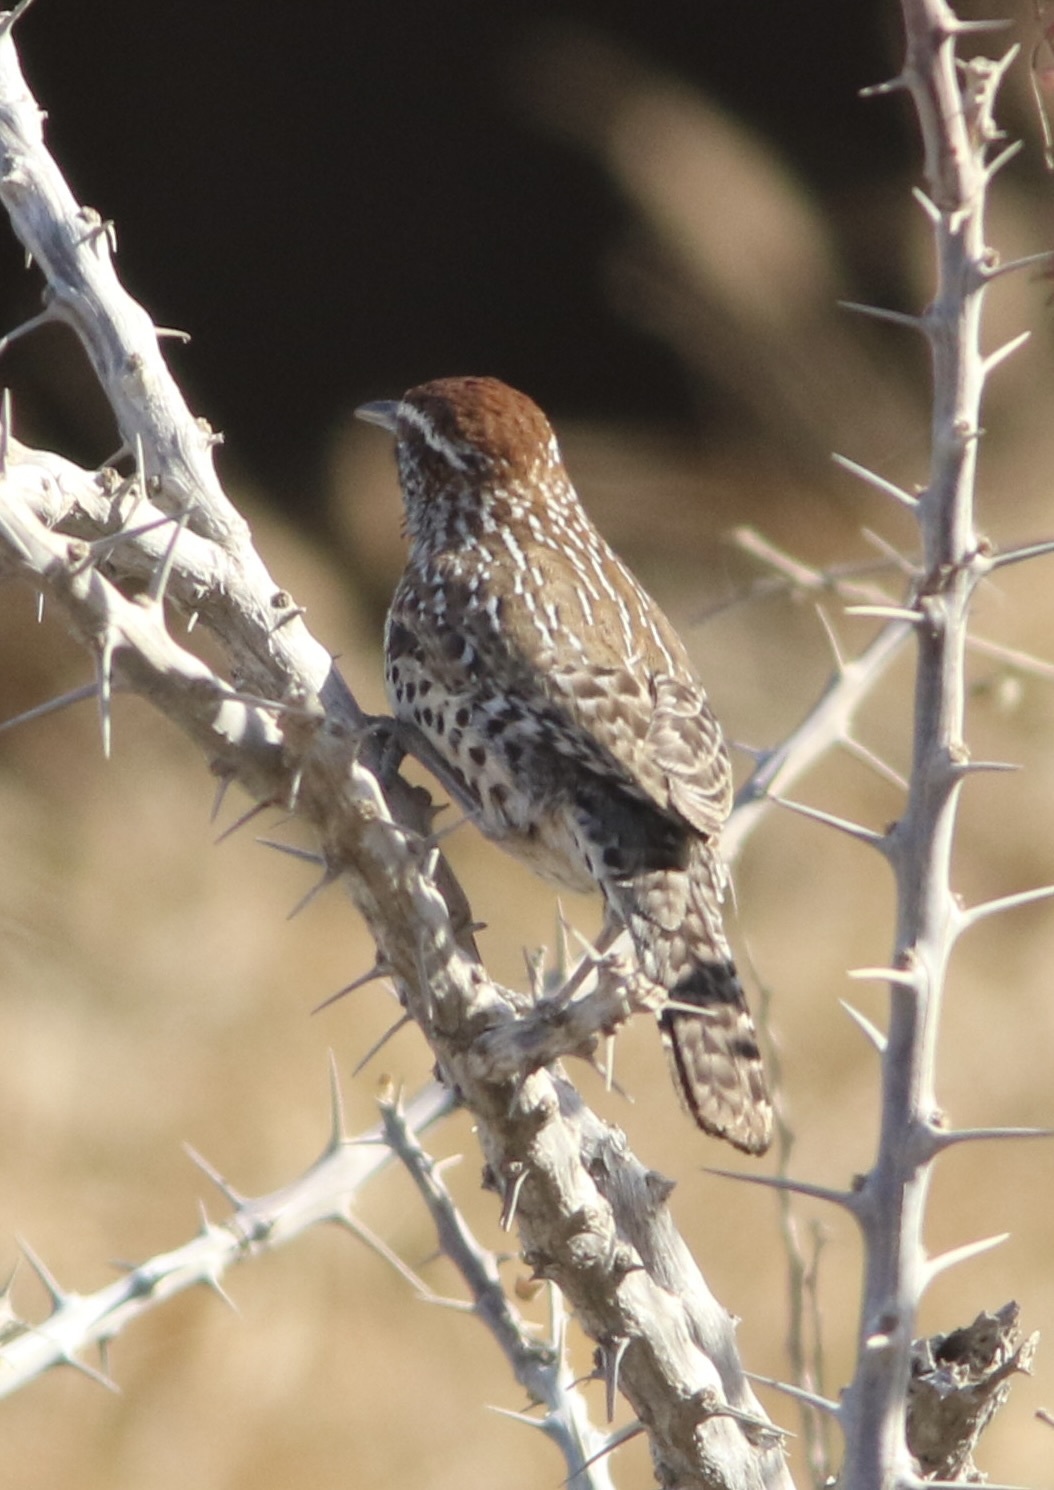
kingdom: Animalia
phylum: Chordata
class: Aves
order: Passeriformes
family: Troglodytidae
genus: Campylorhynchus
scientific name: Campylorhynchus brunneicapillus
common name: Cactus wren
